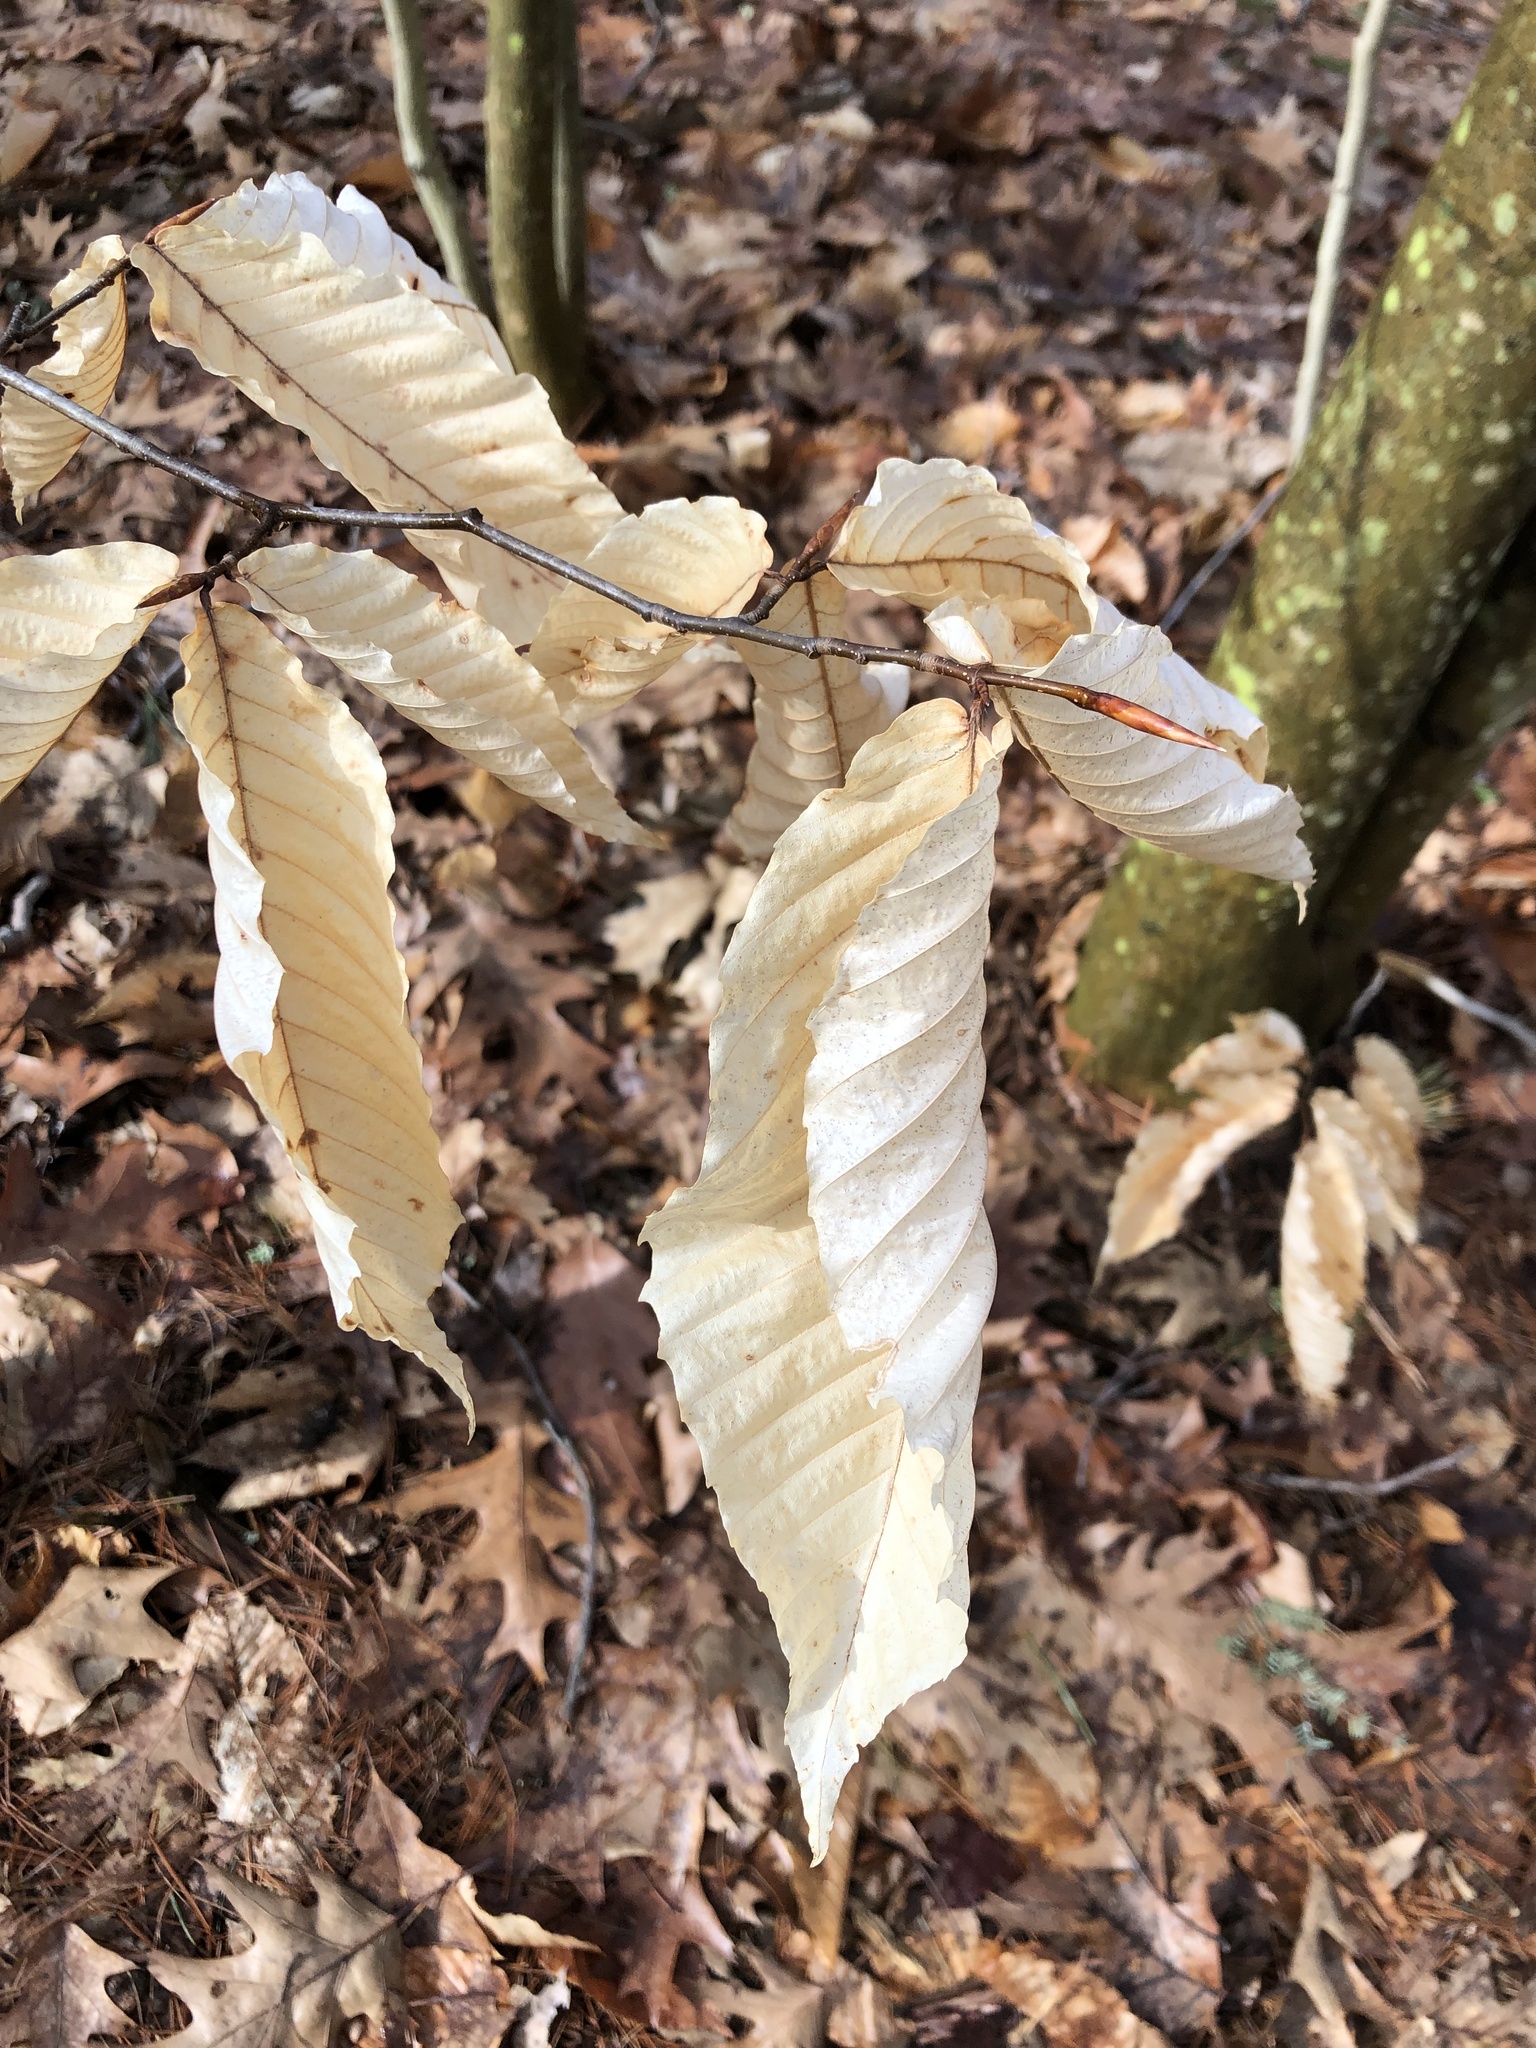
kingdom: Plantae
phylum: Tracheophyta
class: Magnoliopsida
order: Fagales
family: Fagaceae
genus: Fagus
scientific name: Fagus grandifolia
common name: American beech
